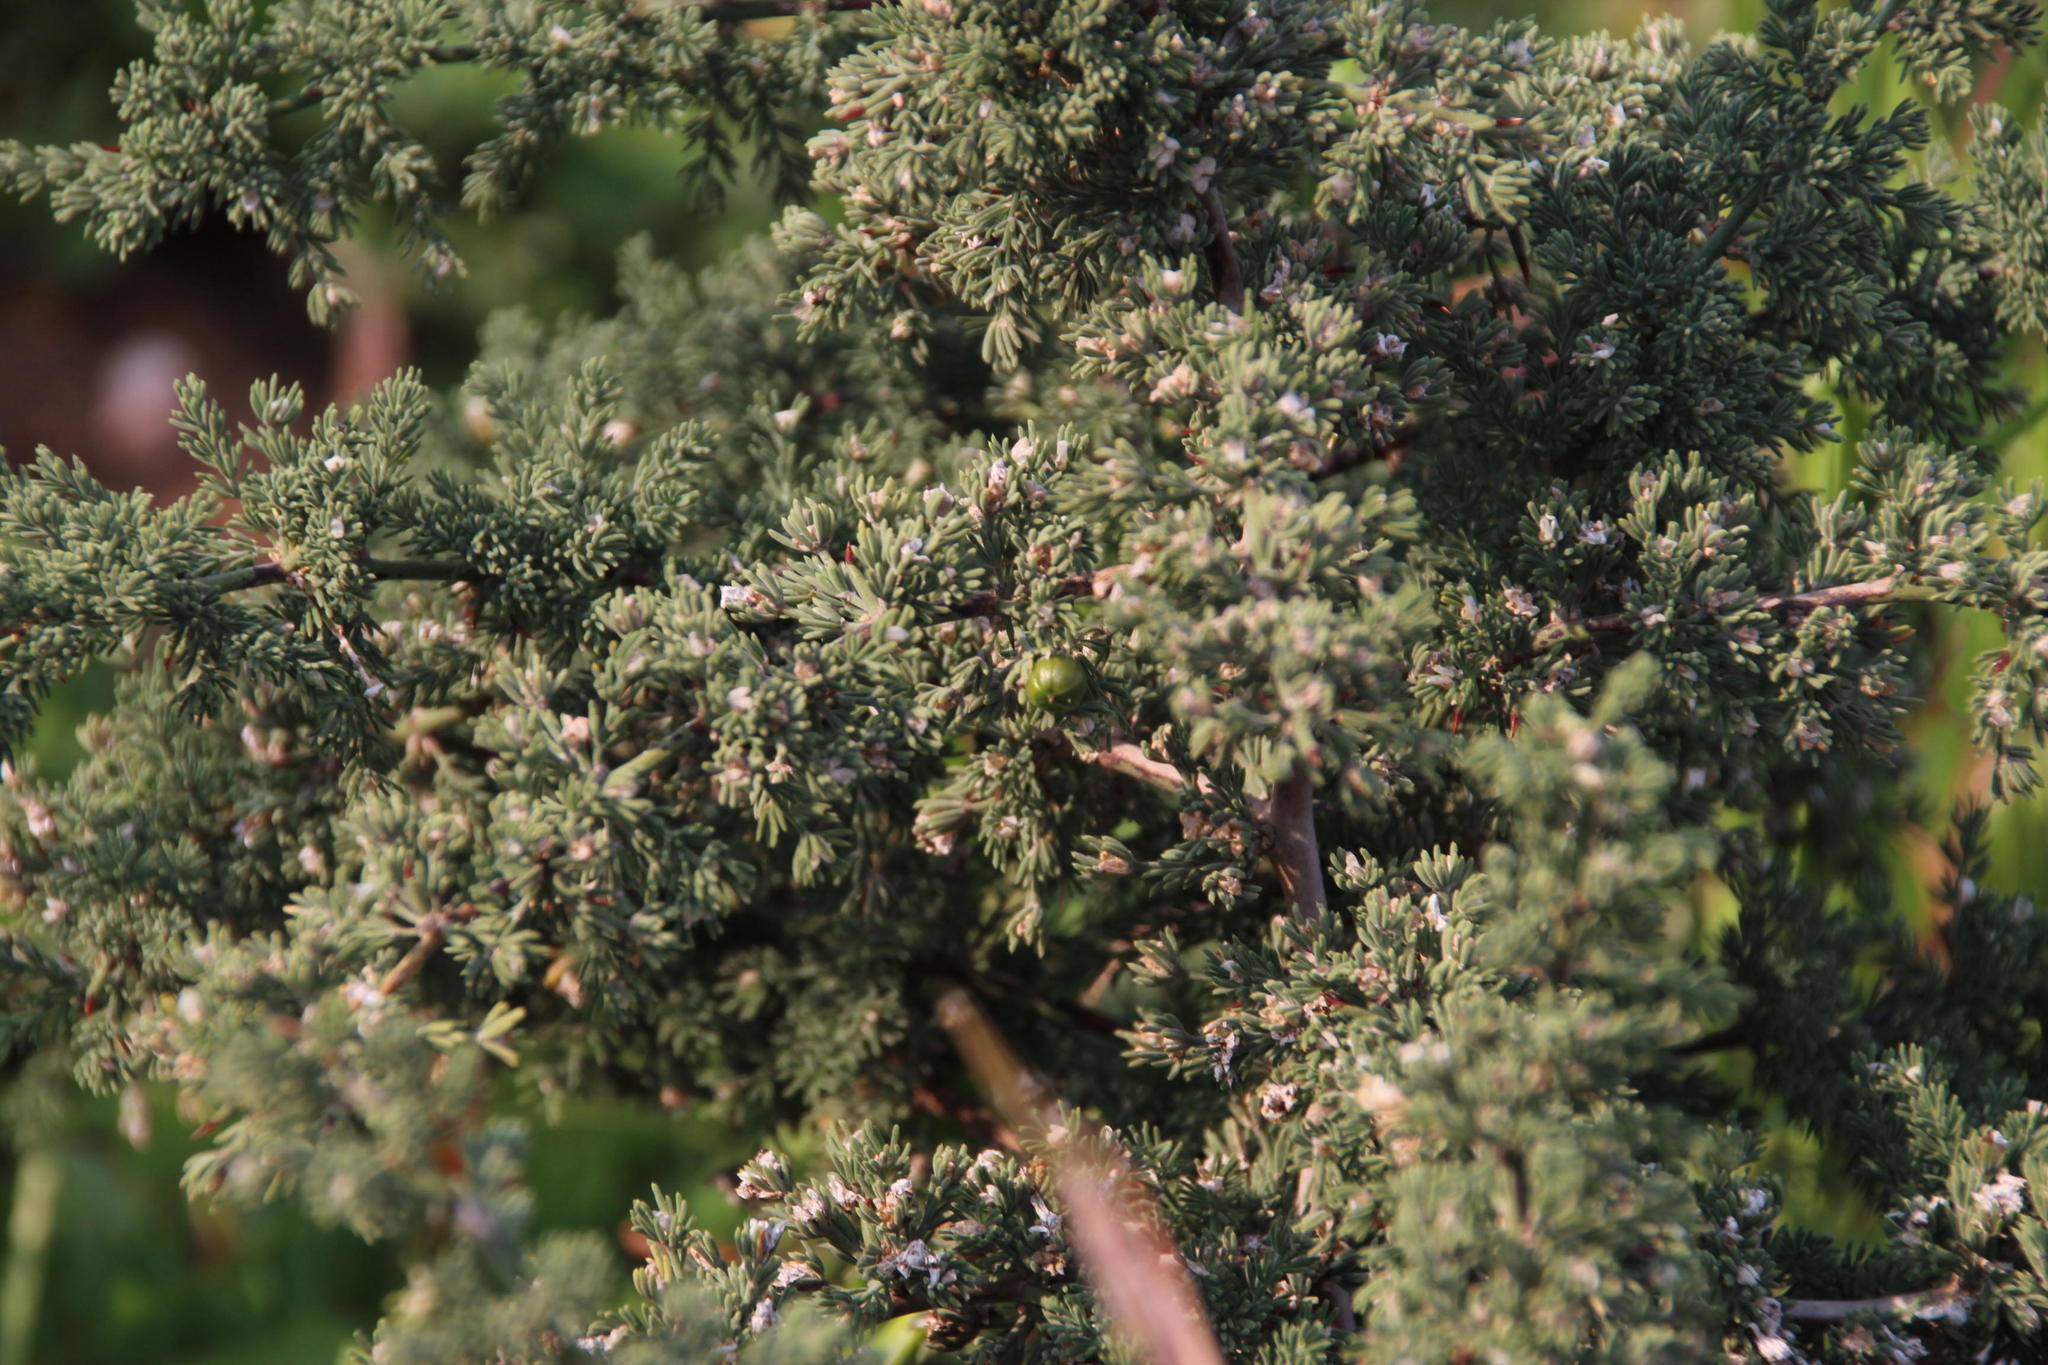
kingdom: Plantae
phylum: Tracheophyta
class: Liliopsida
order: Asparagales
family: Asparagaceae
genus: Asparagus
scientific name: Asparagus capensis
